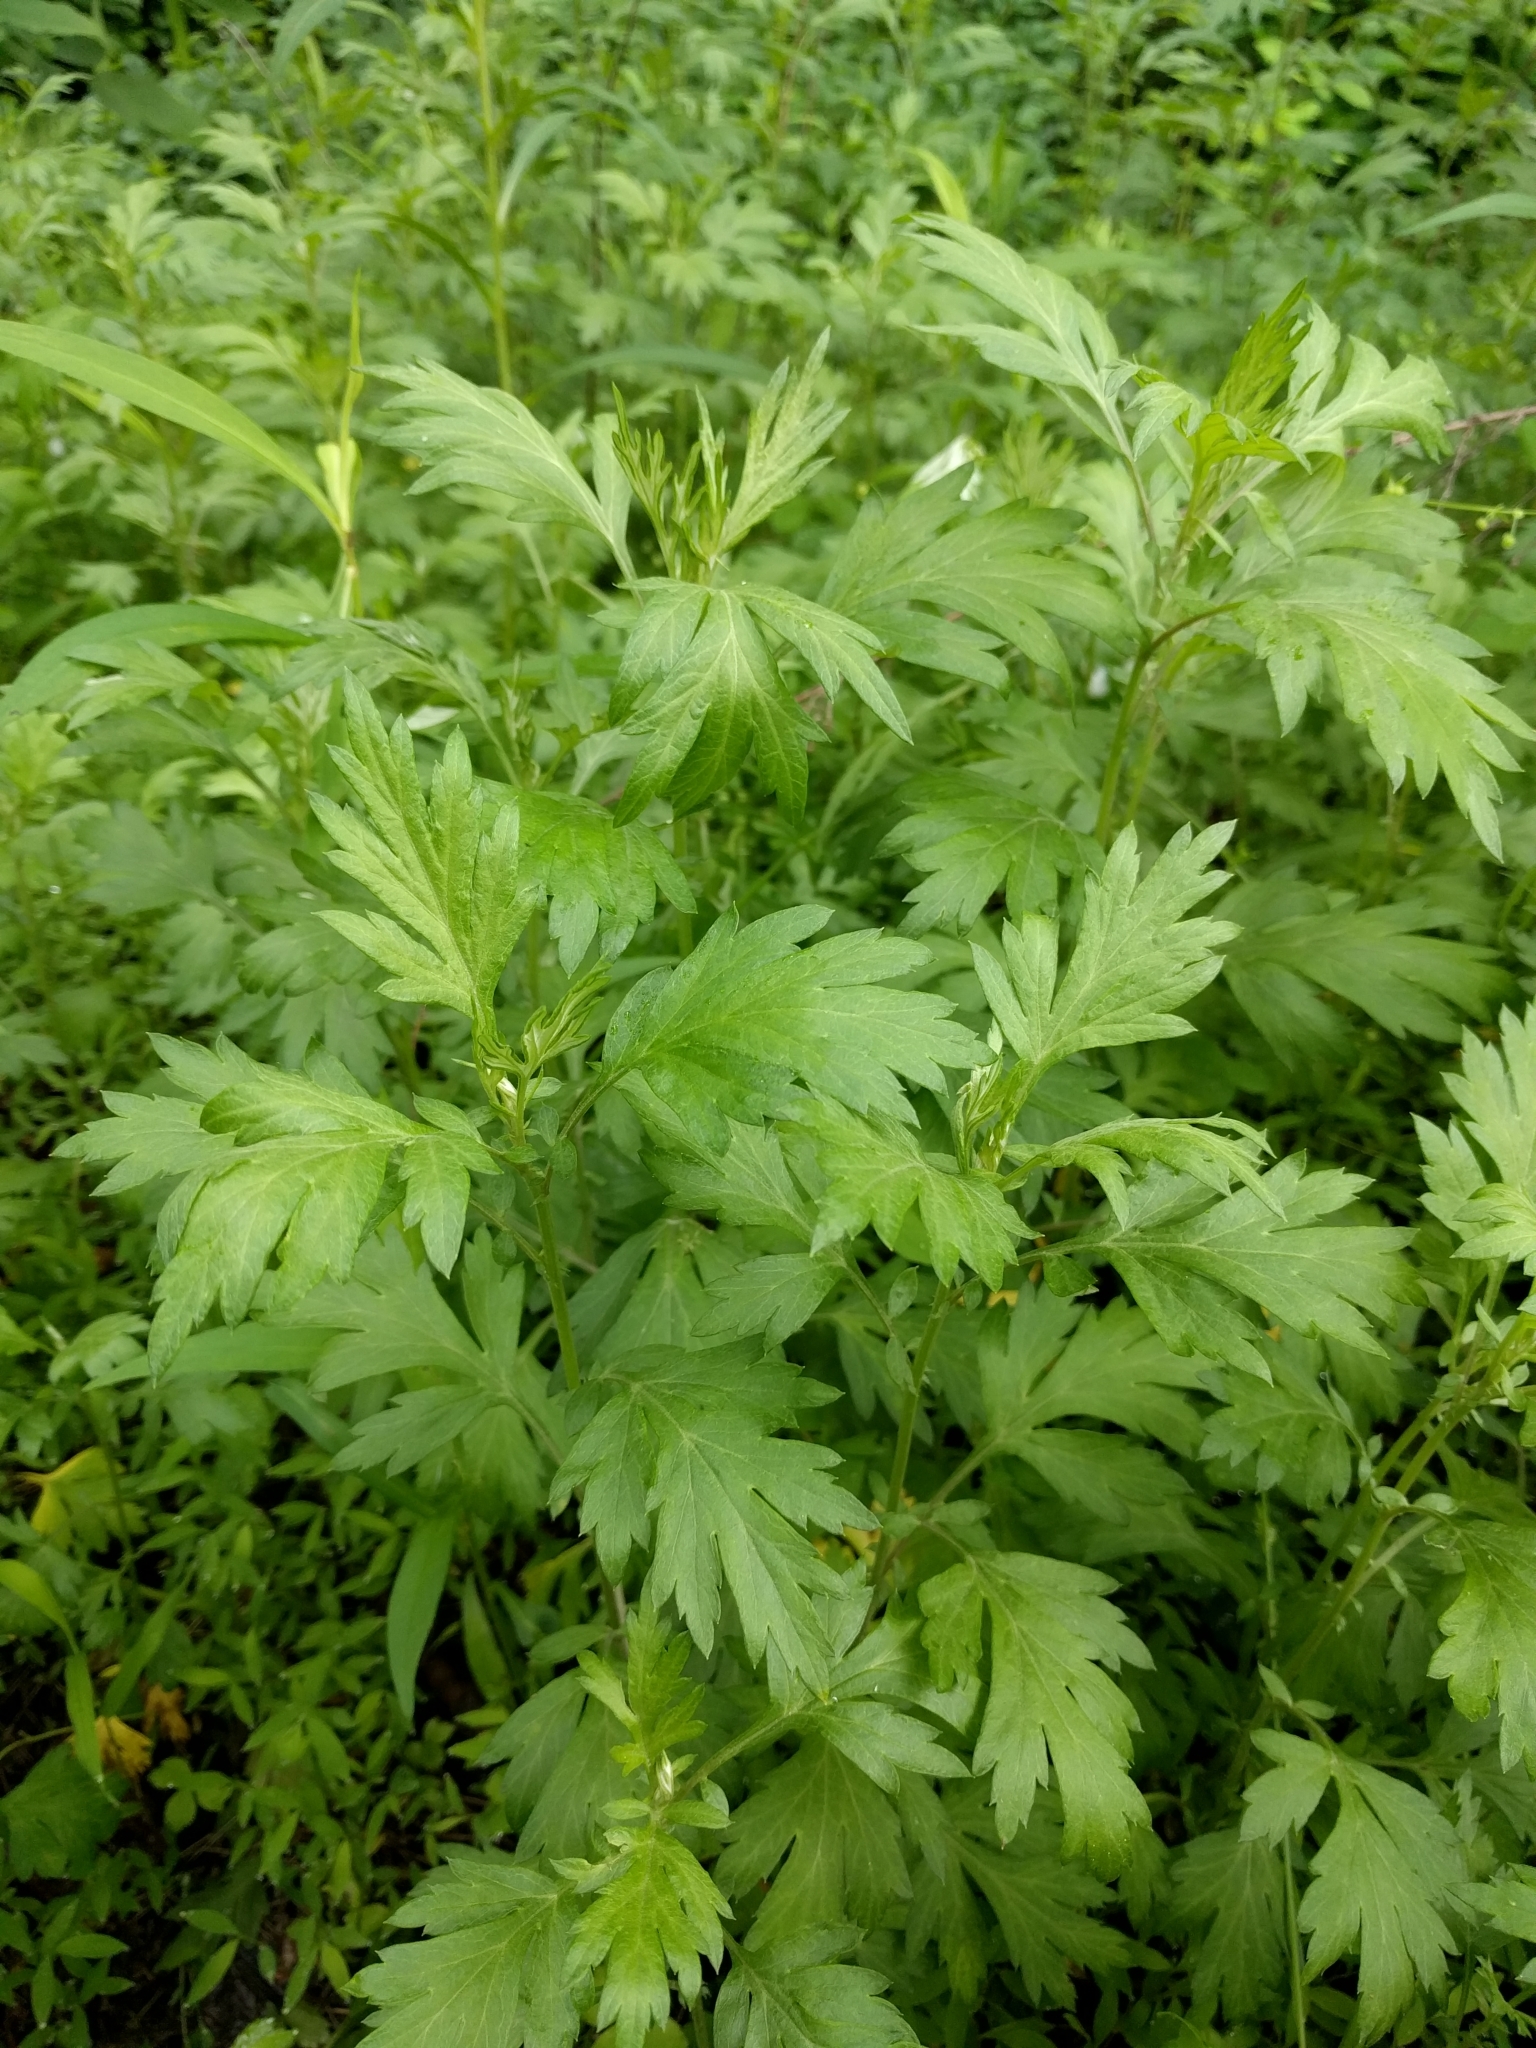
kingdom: Plantae
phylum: Tracheophyta
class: Magnoliopsida
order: Asterales
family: Asteraceae
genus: Artemisia
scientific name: Artemisia vulgaris
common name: Mugwort
